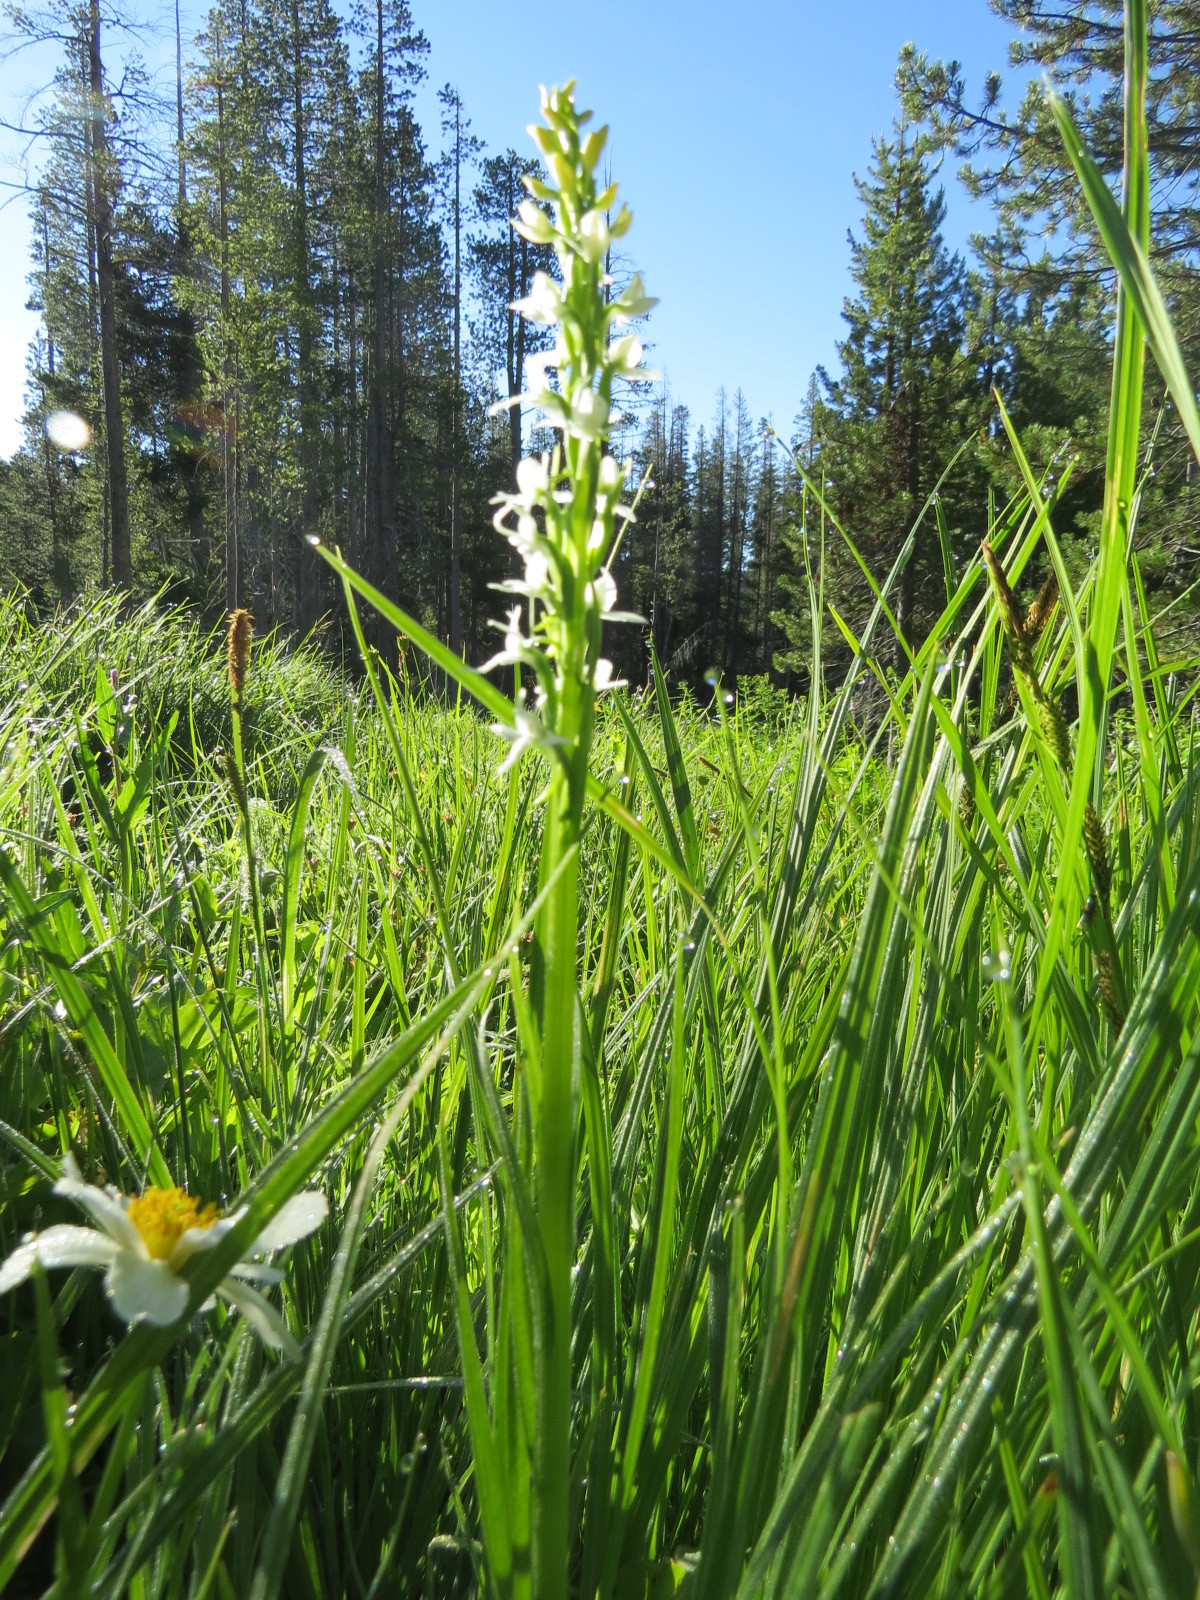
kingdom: Plantae
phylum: Tracheophyta
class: Liliopsida
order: Asparagales
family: Orchidaceae
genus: Platanthera
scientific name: Platanthera dilatata
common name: Bog candles
